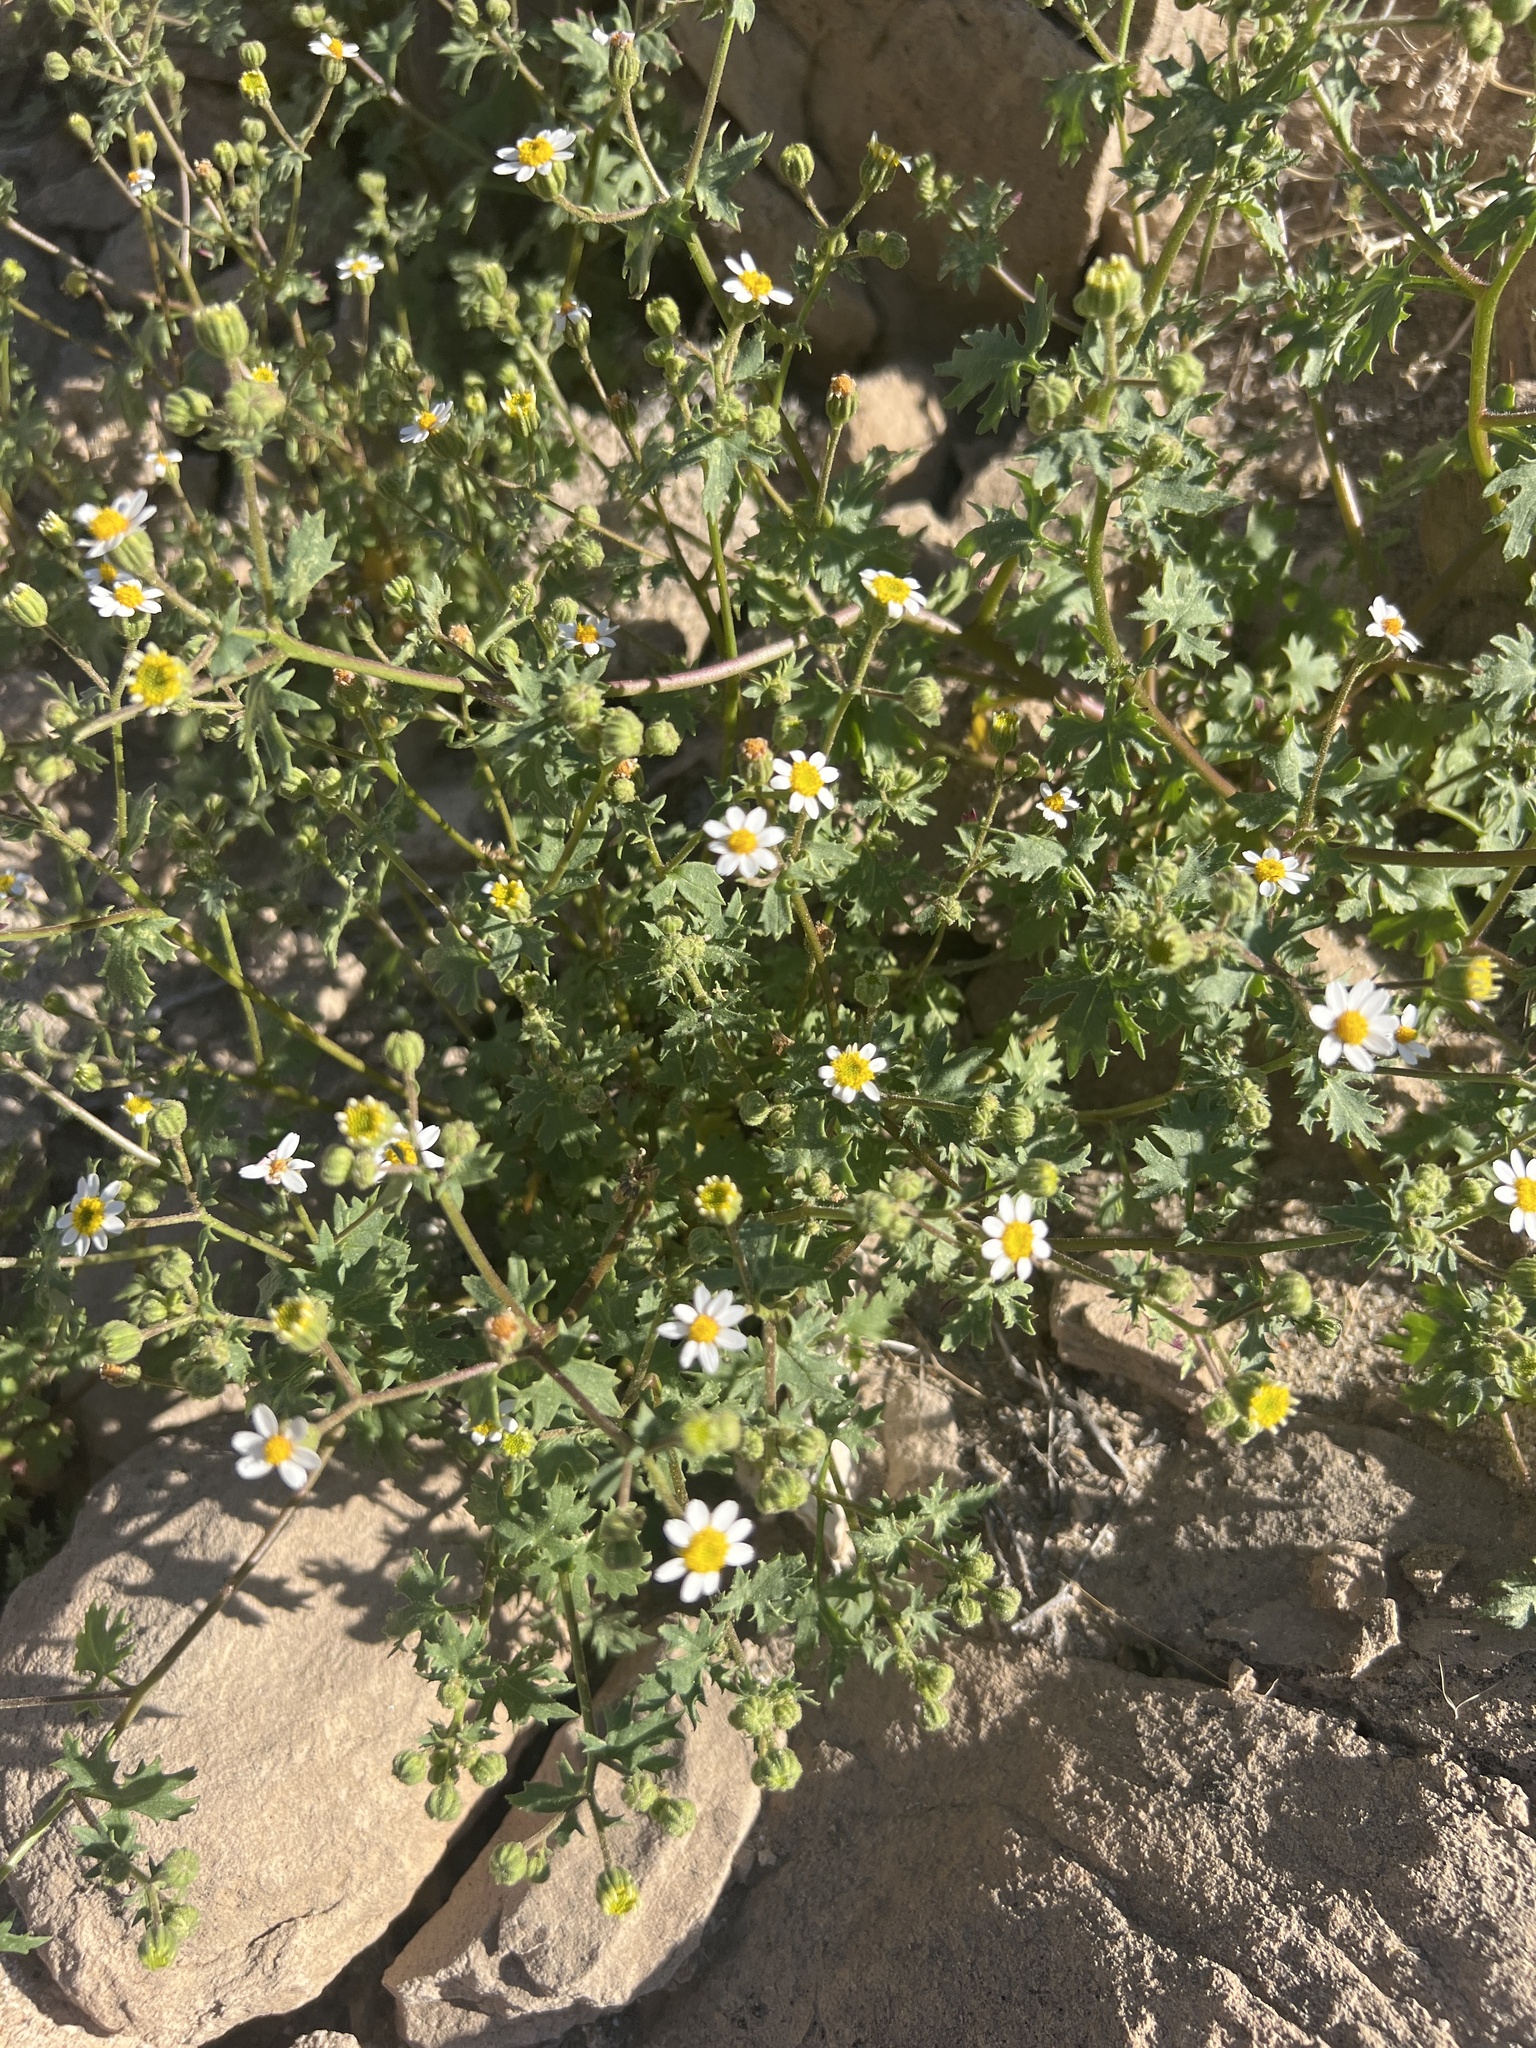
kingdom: Plantae
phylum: Tracheophyta
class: Magnoliopsida
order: Asterales
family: Asteraceae
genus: Laphamia
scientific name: Laphamia emoryi
